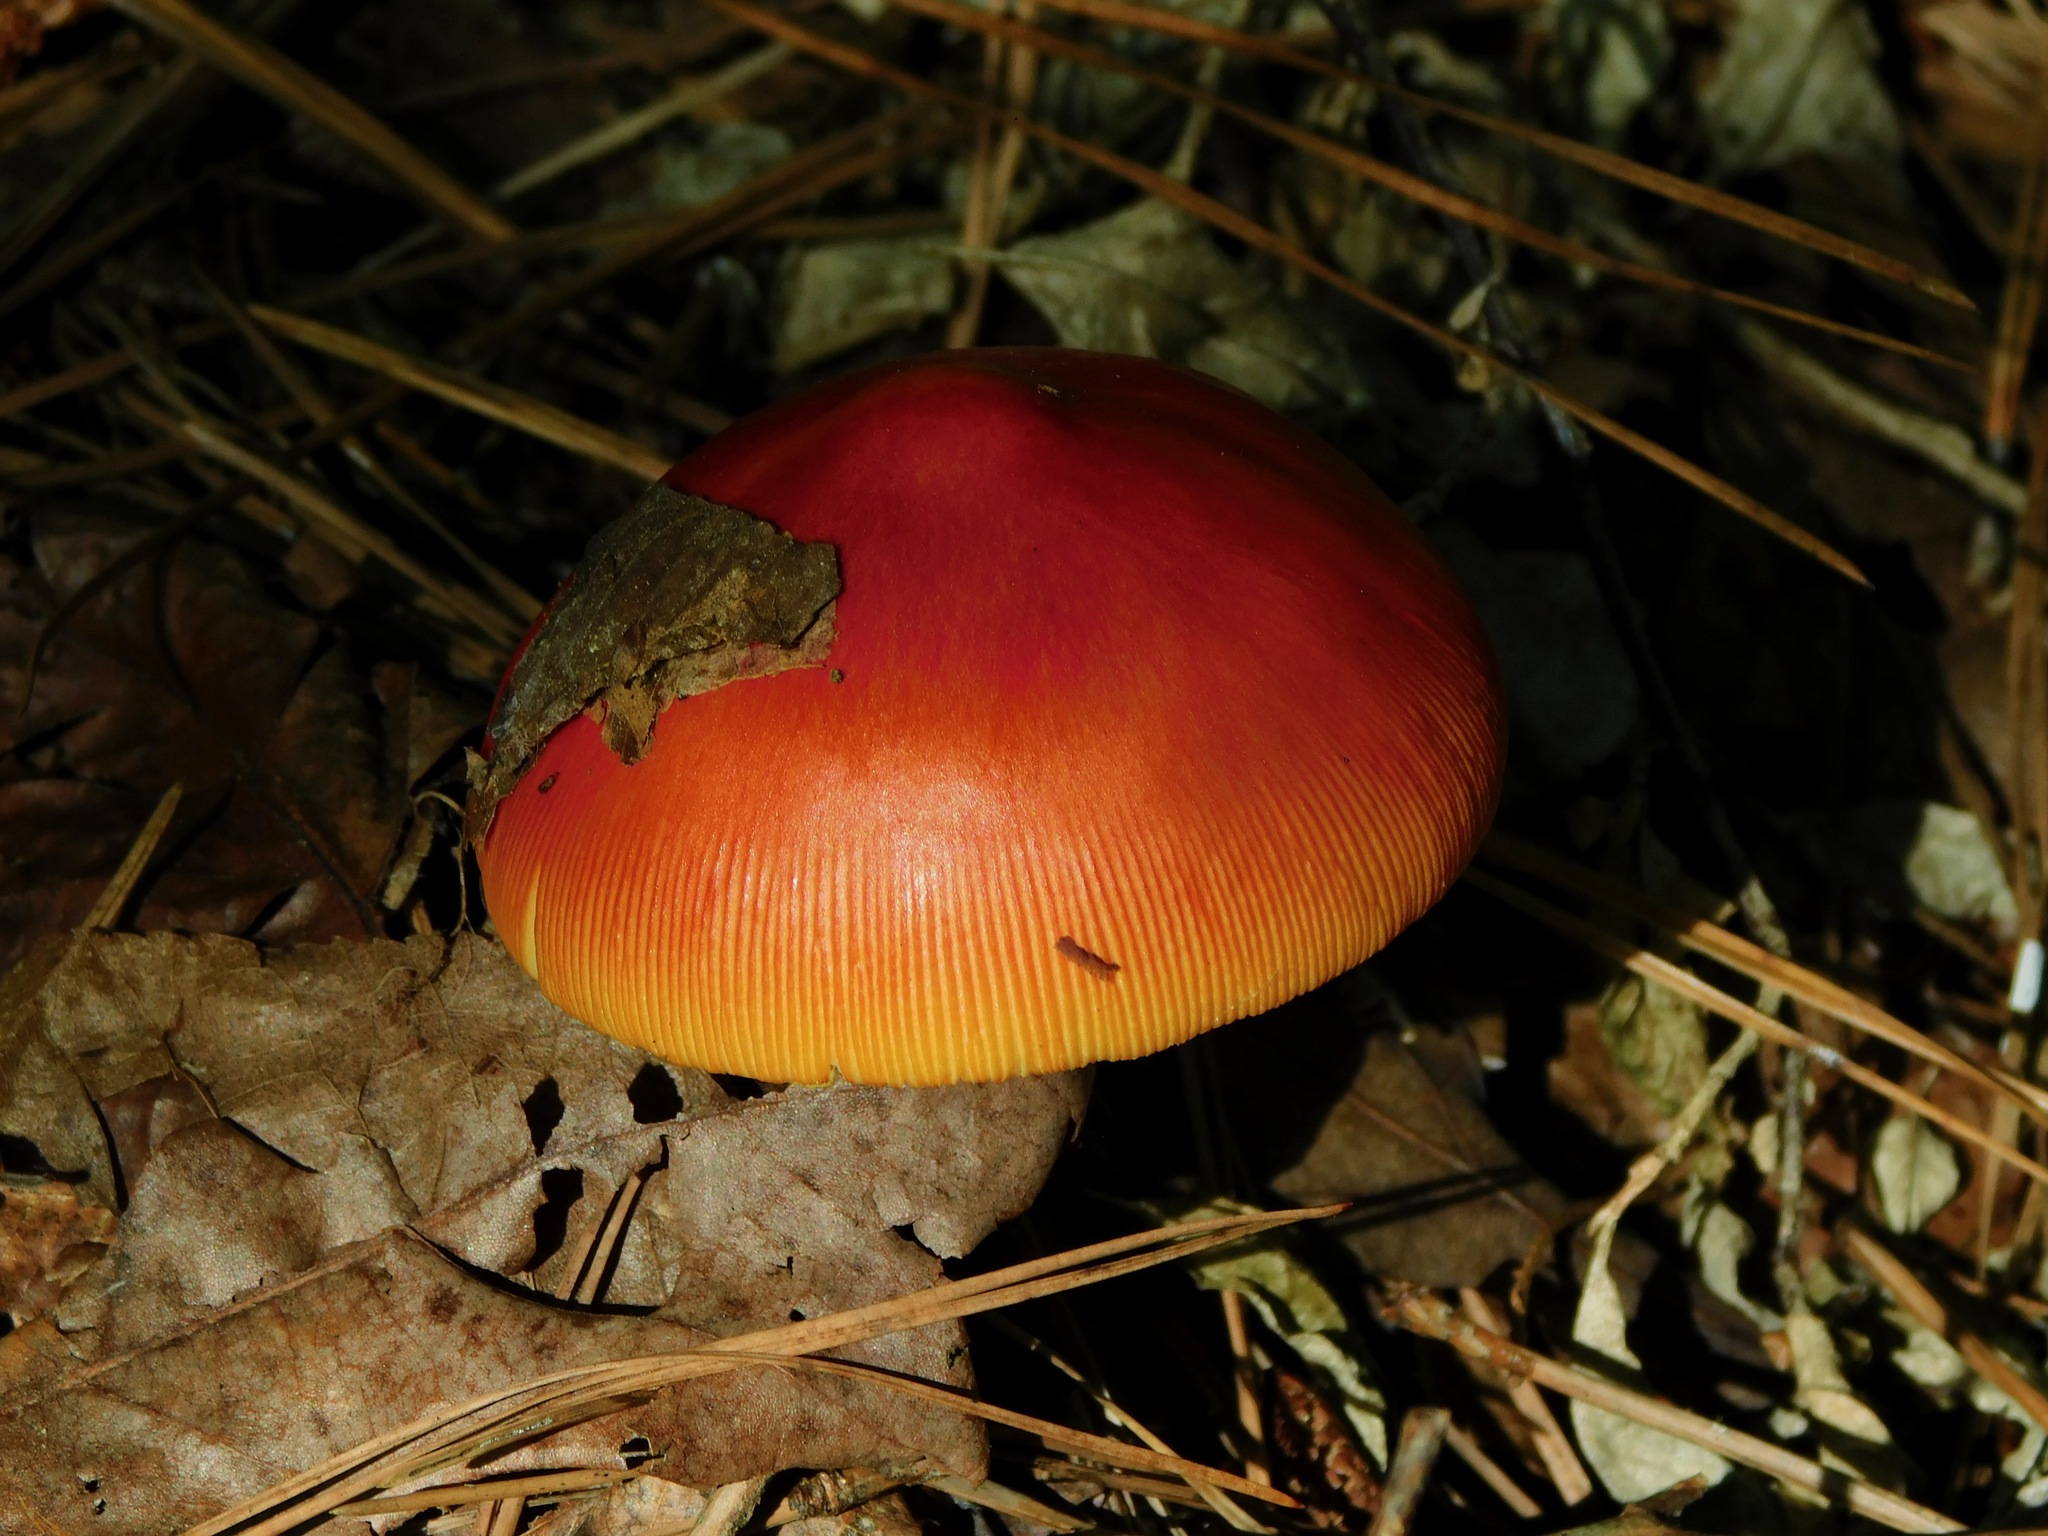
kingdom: Fungi
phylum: Basidiomycota
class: Agaricomycetes
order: Agaricales
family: Amanitaceae
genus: Amanita
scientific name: Amanita jacksonii
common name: Jackson's slender caesar
